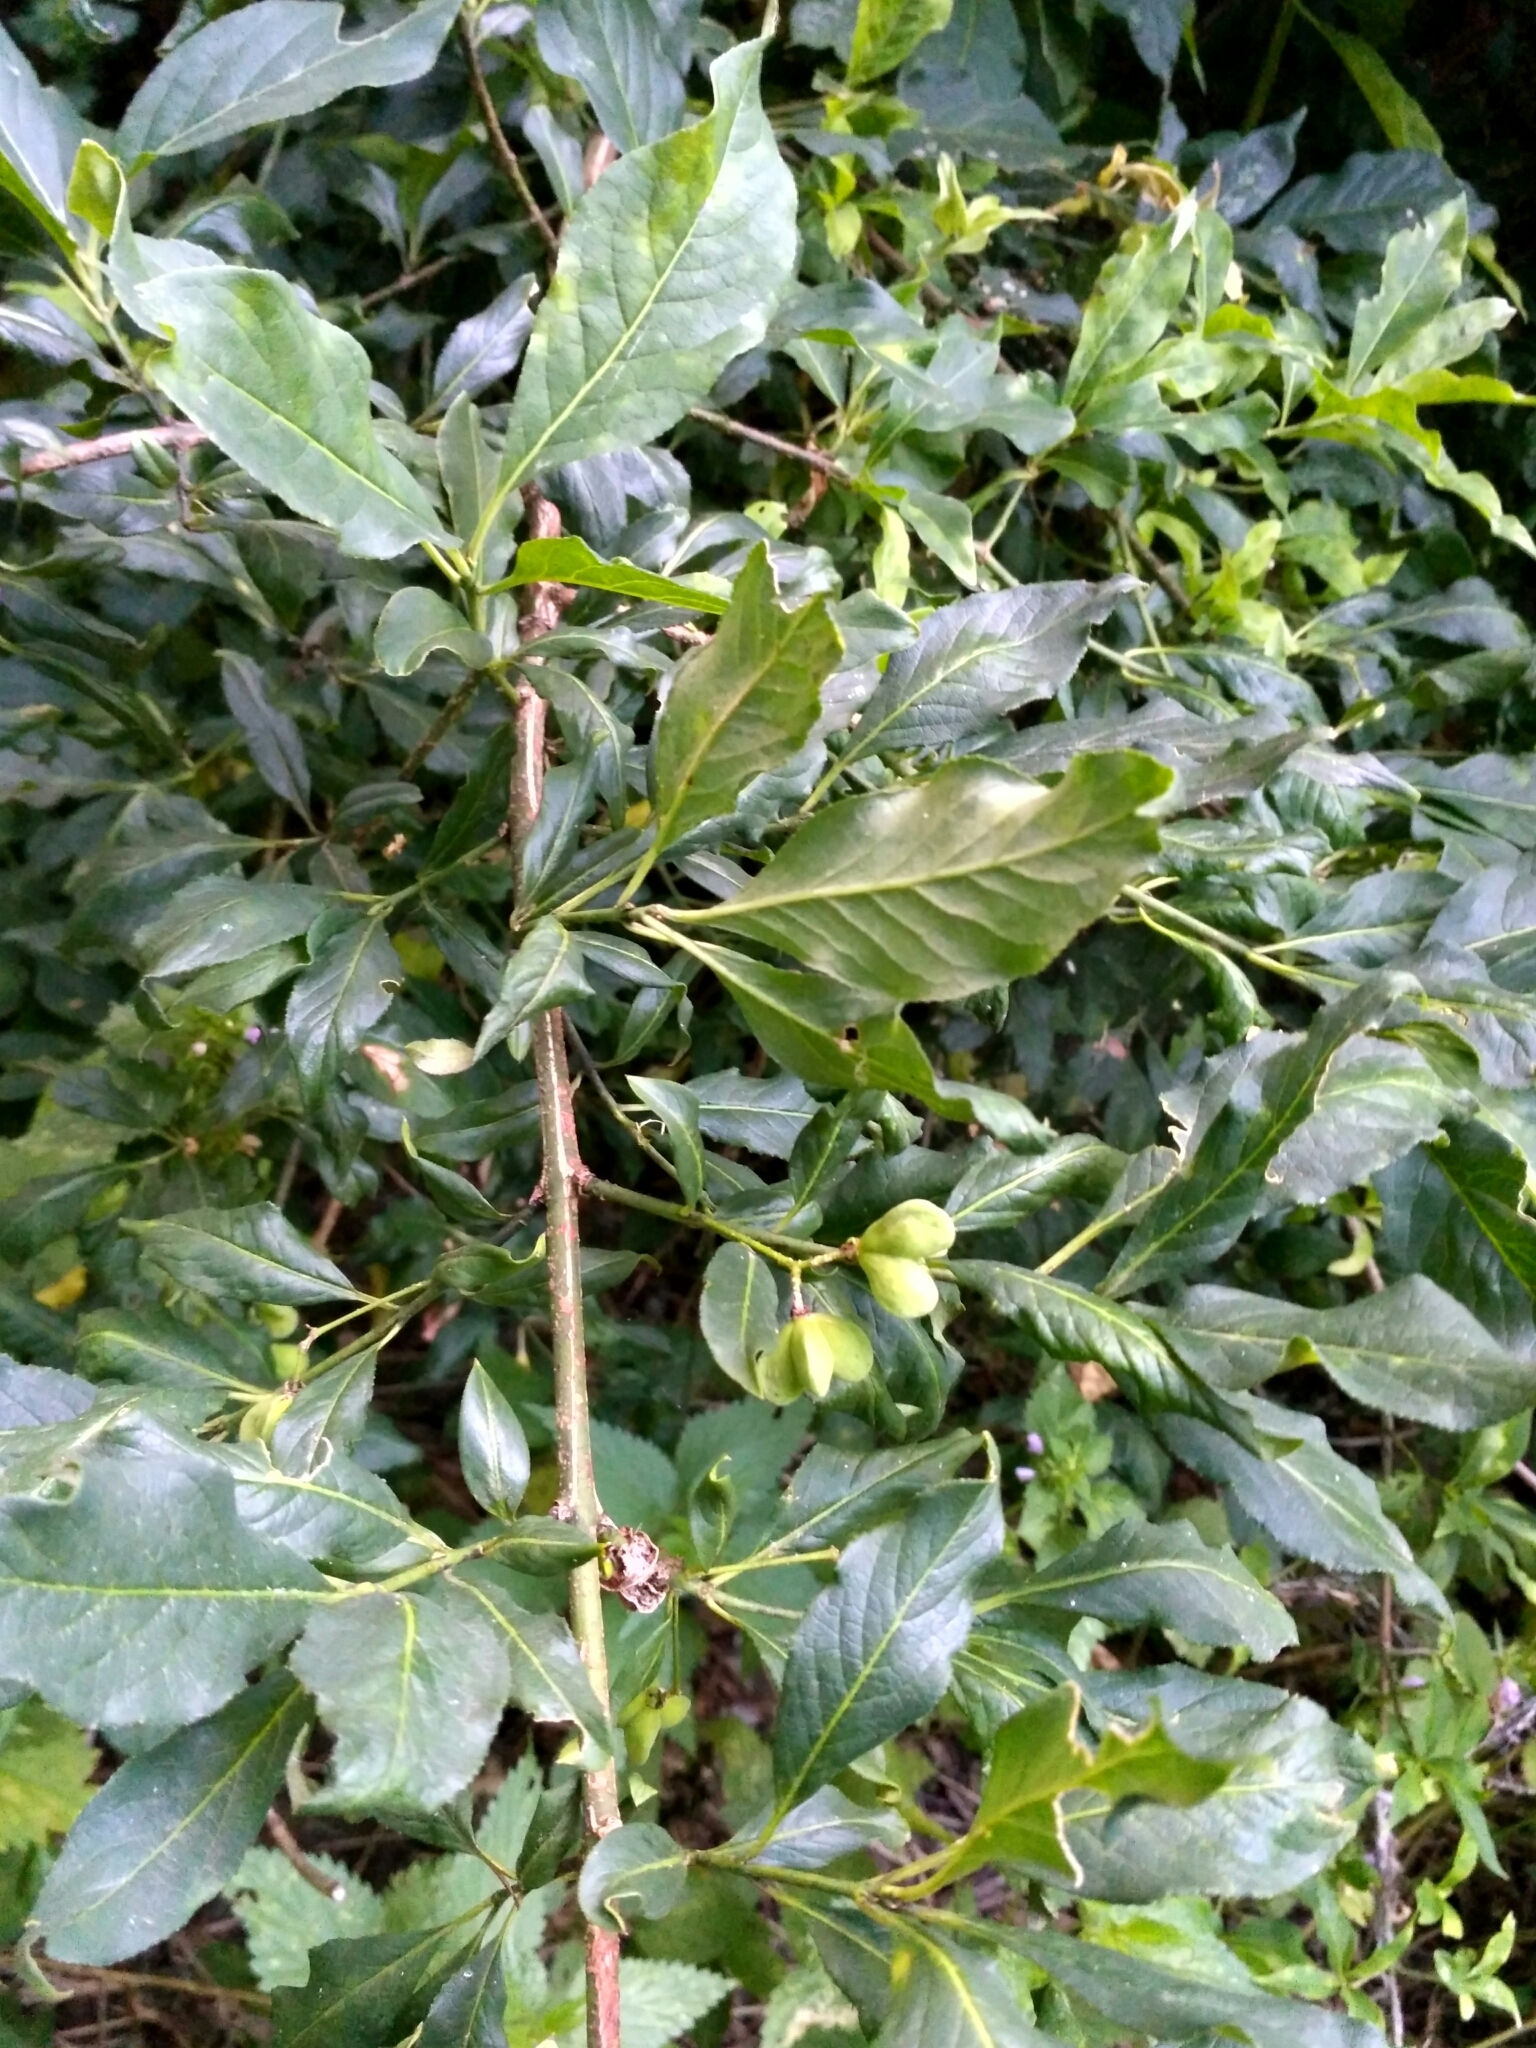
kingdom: Plantae
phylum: Tracheophyta
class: Magnoliopsida
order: Celastrales
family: Celastraceae
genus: Euonymus
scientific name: Euonymus europaeus
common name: Spindle
